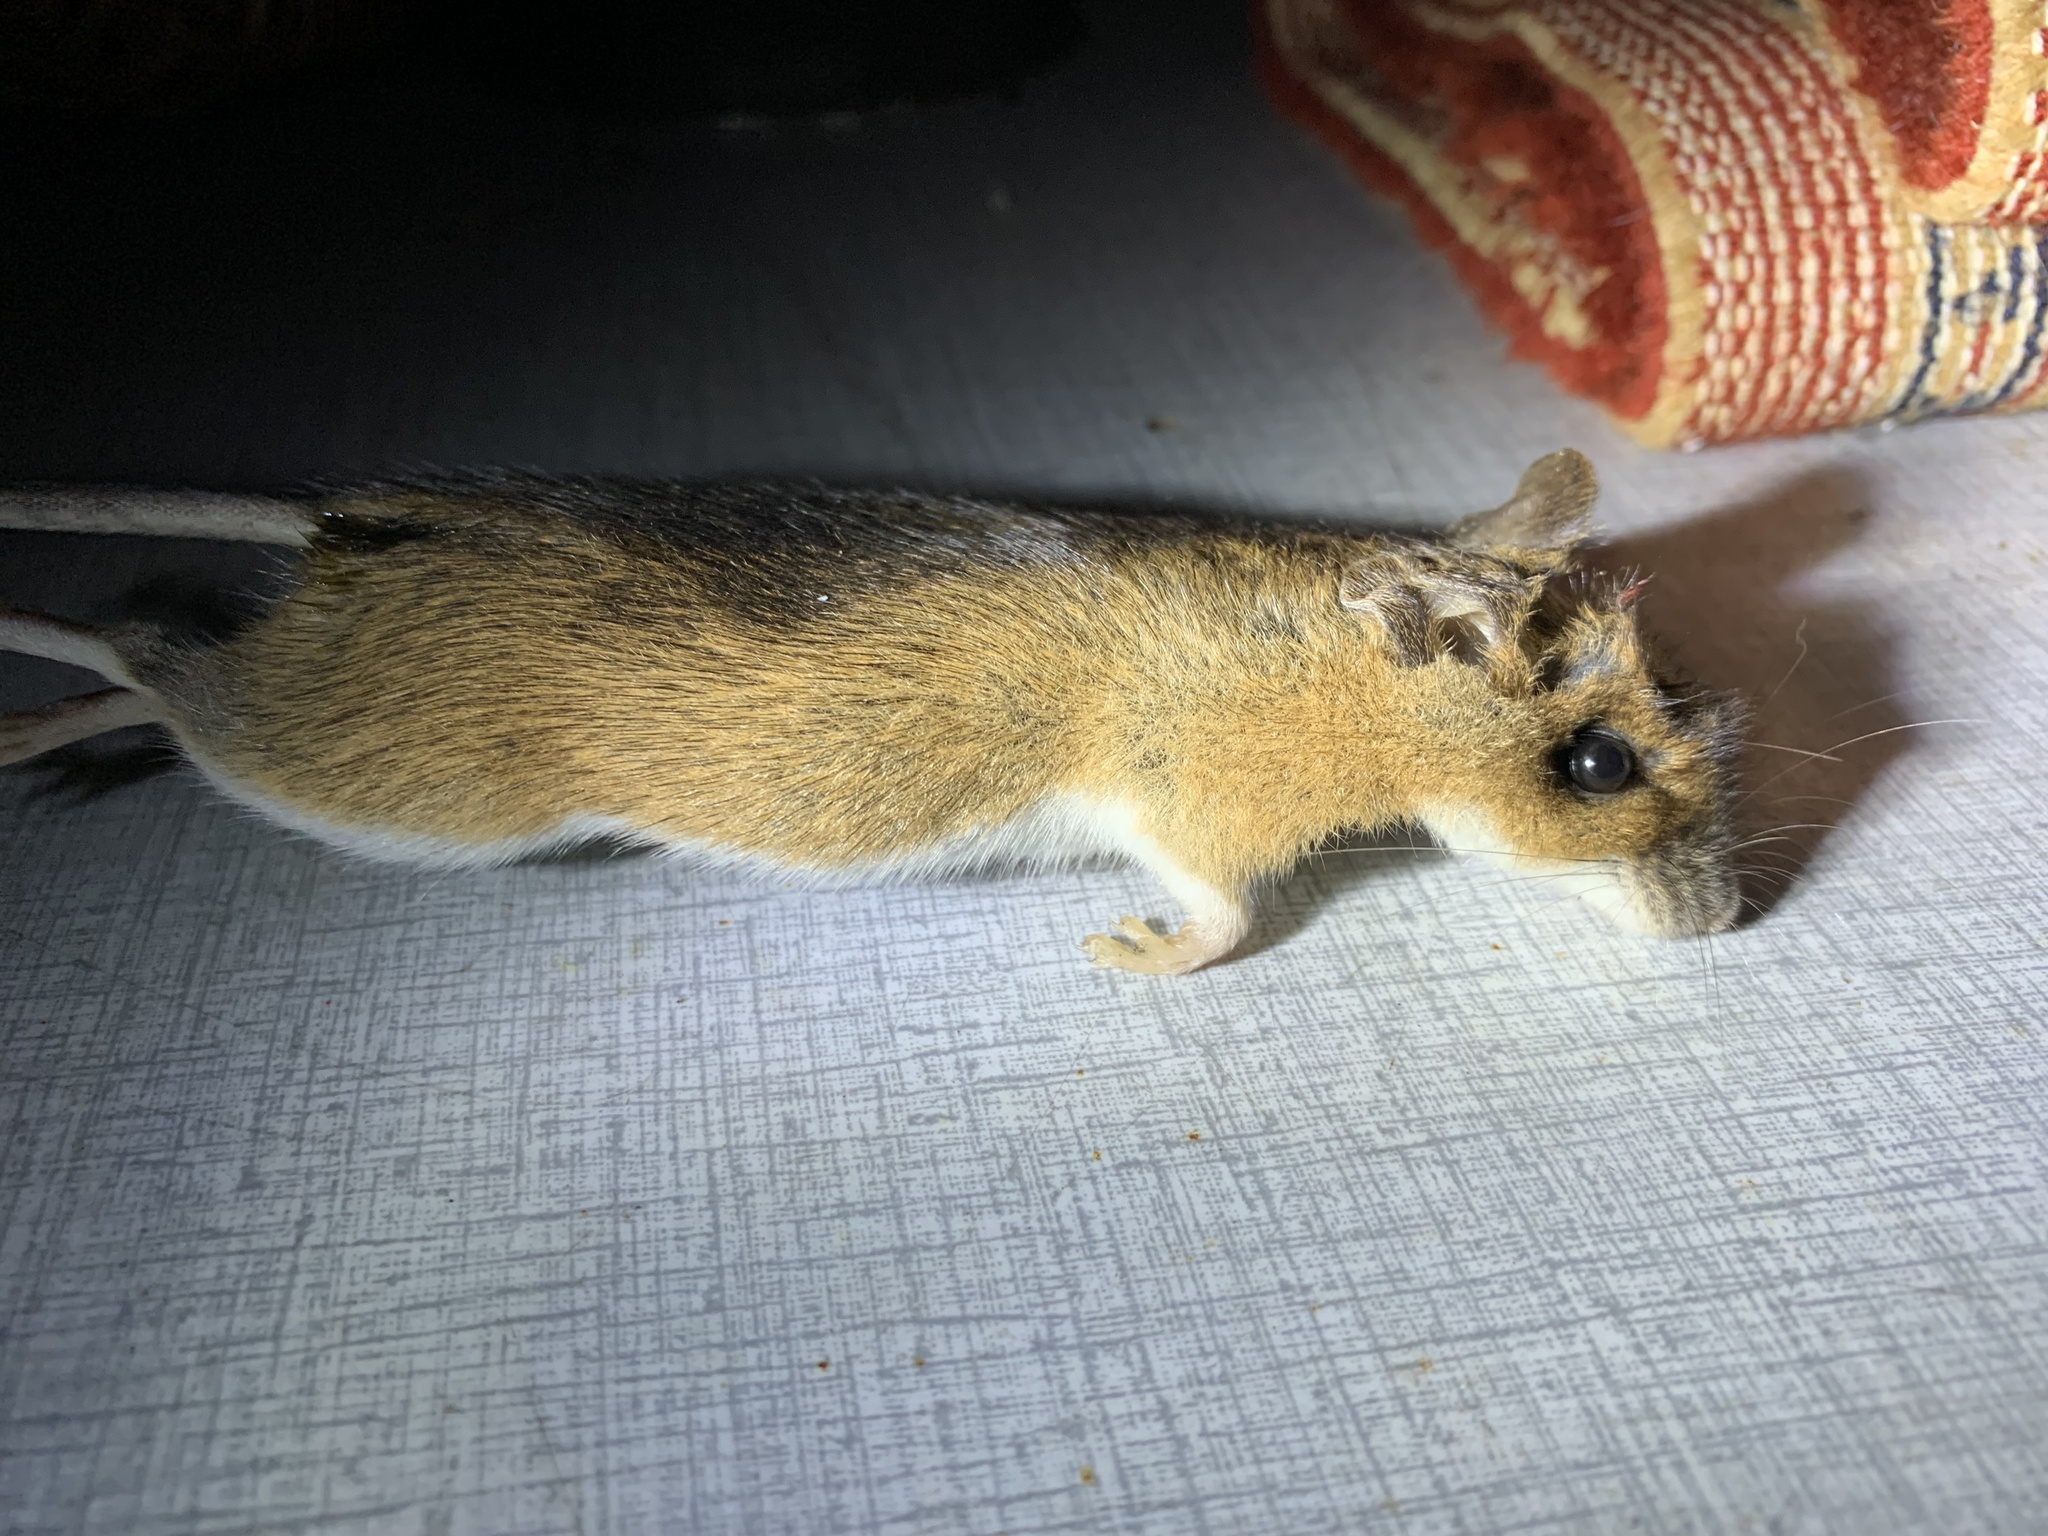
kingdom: Animalia
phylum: Chordata
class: Mammalia
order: Rodentia
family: Muridae
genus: Apodemus
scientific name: Apodemus flavicollis
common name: Yellow-necked field mouse
